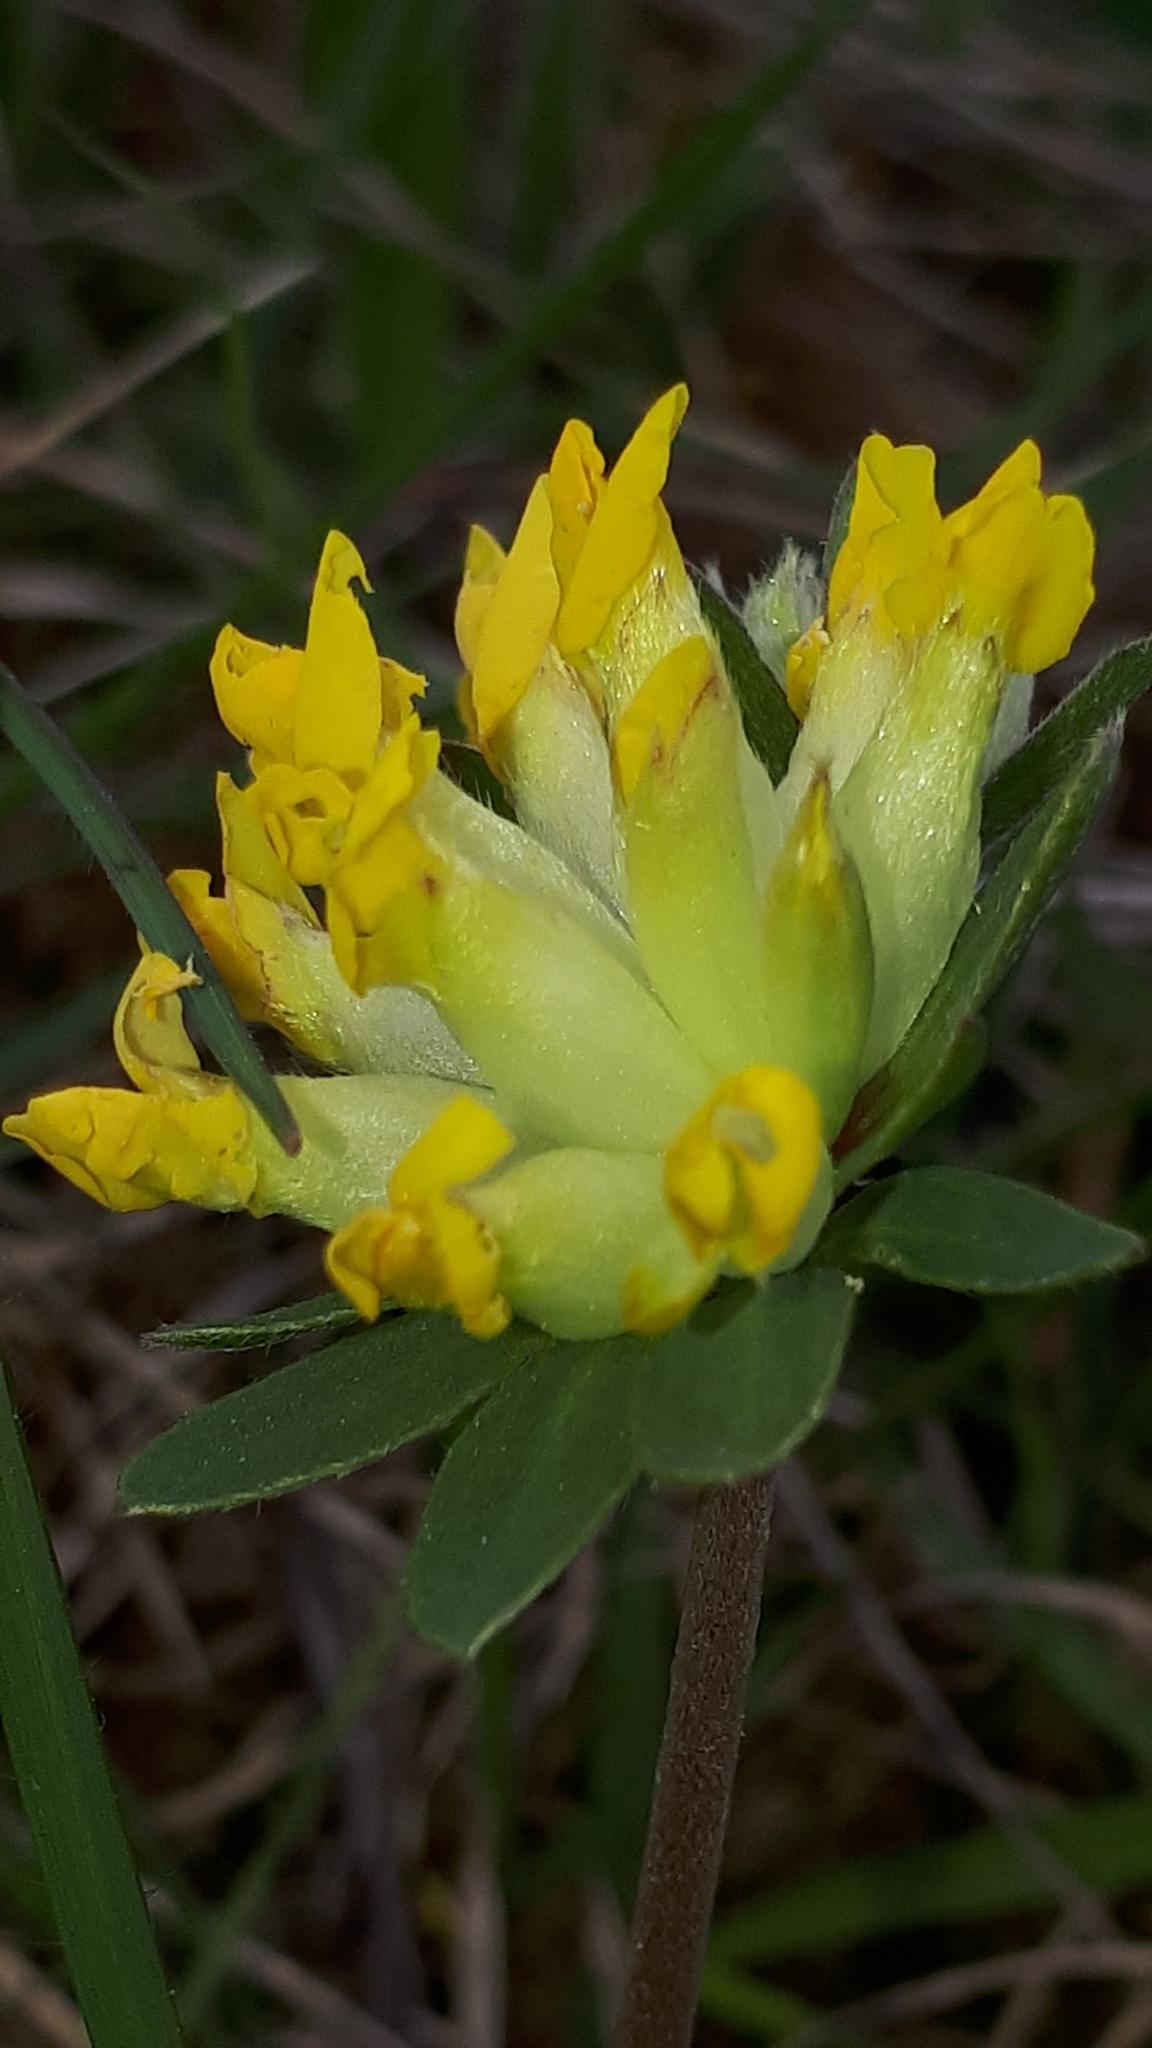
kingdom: Plantae
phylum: Tracheophyta
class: Magnoliopsida
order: Fabales
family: Fabaceae
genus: Anthyllis
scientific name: Anthyllis vulneraria
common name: Kidney vetch
